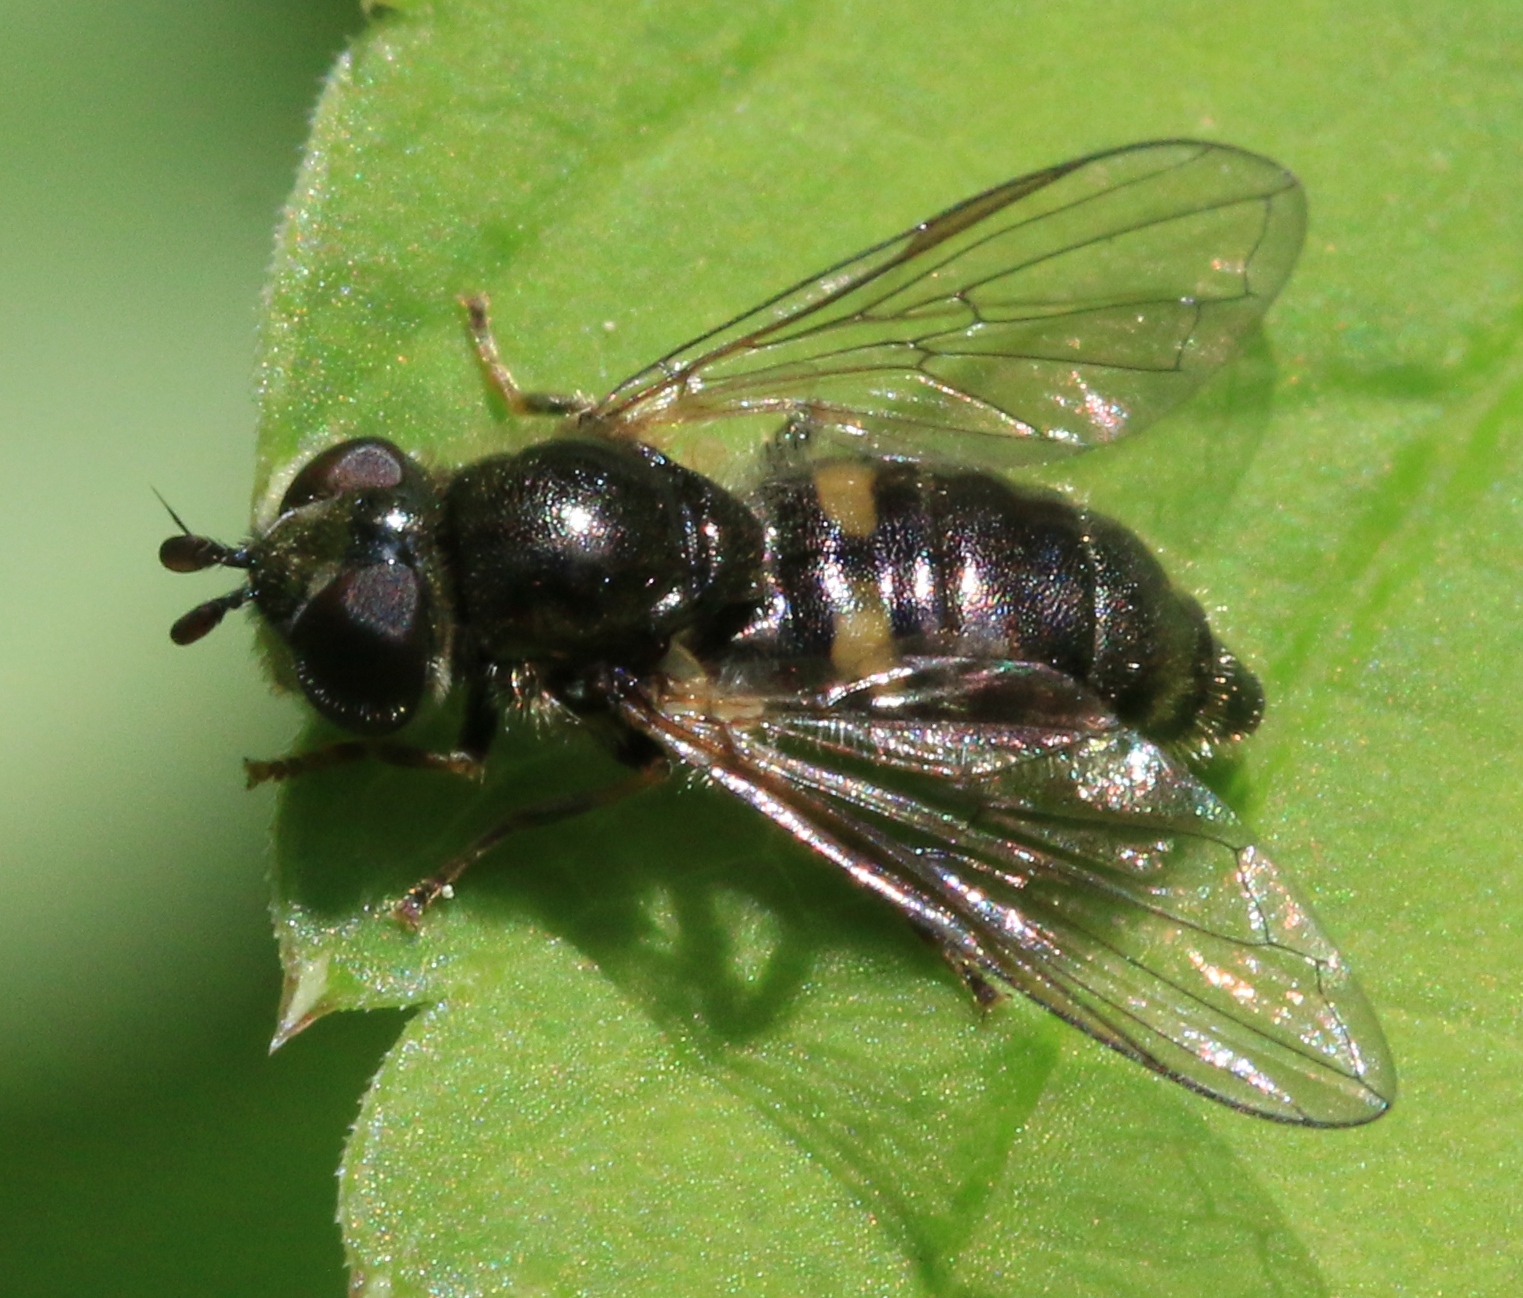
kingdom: Animalia
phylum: Arthropoda
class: Insecta
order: Diptera
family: Syrphidae
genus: Pipiza
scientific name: Pipiza luteitarsis
